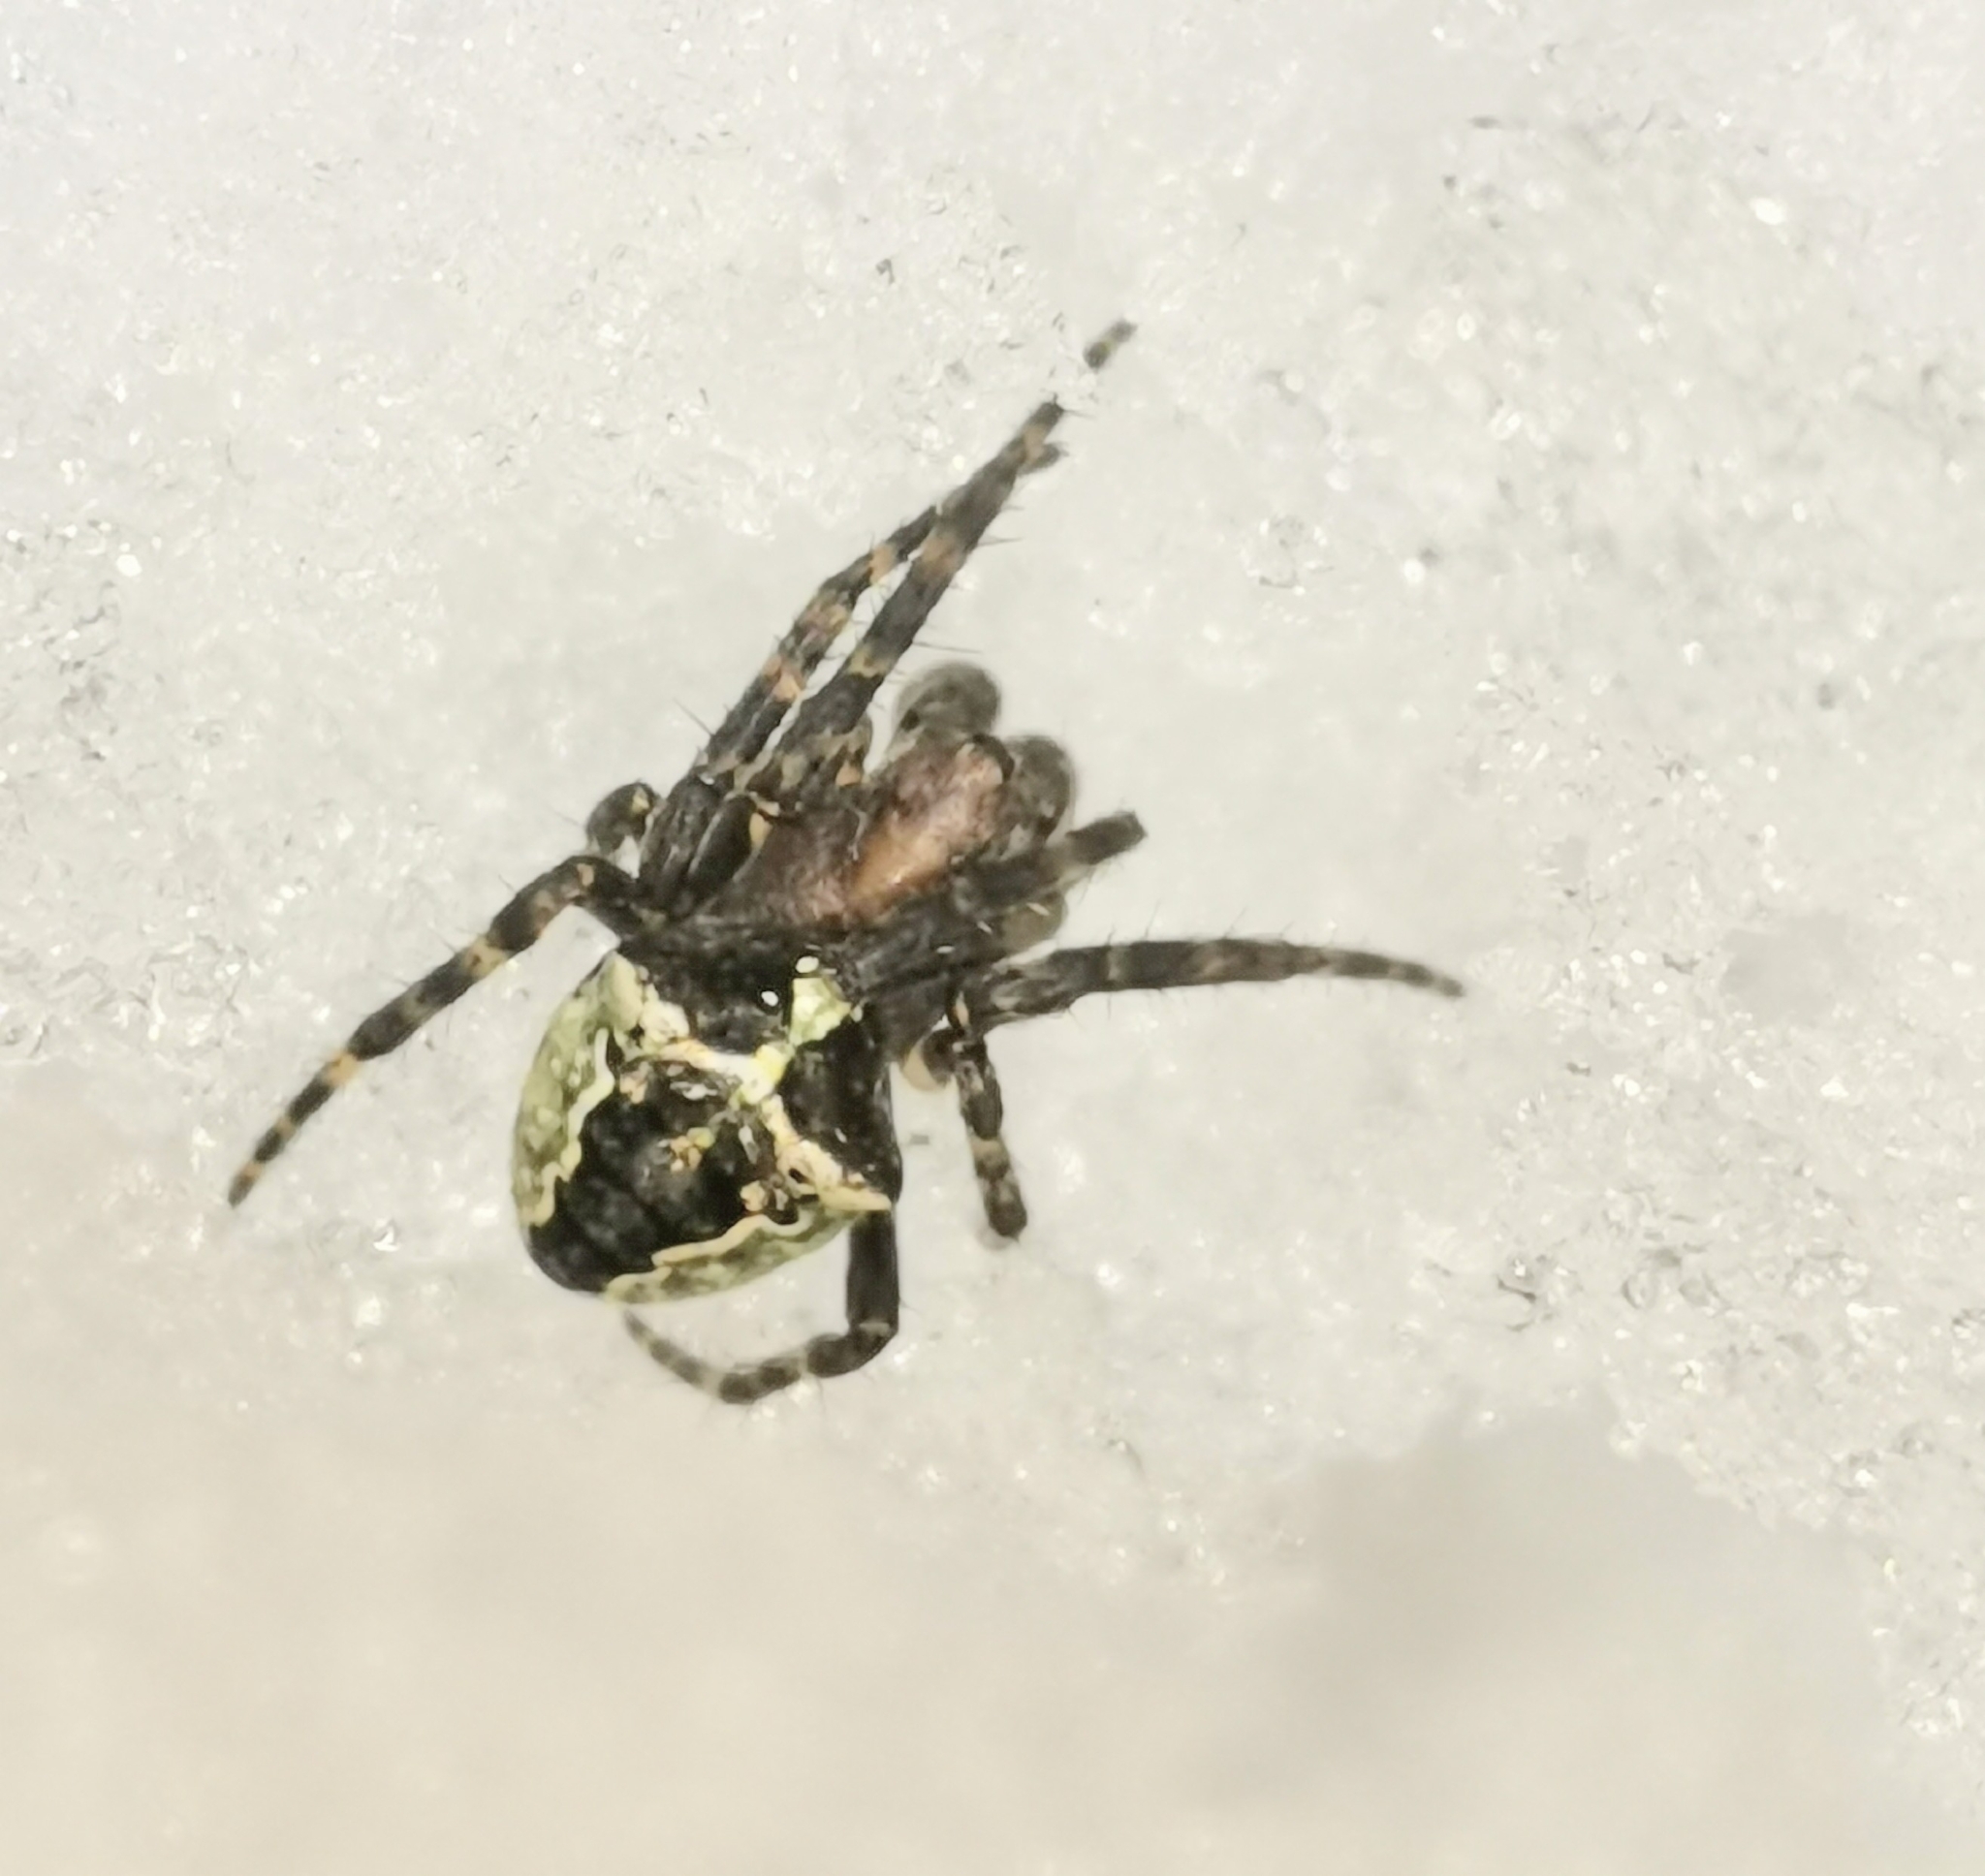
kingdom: Animalia
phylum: Arthropoda
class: Arachnida
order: Araneae
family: Araneidae
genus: Gibbaranea
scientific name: Gibbaranea omoeda
